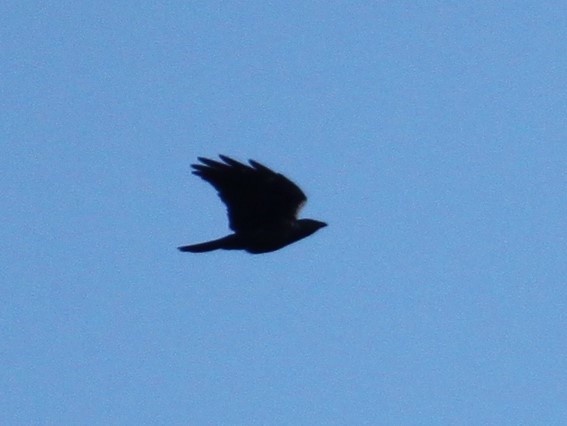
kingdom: Animalia
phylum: Chordata
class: Aves
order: Passeriformes
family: Corvidae
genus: Corvus
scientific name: Corvus ossifragus
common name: Fish crow
